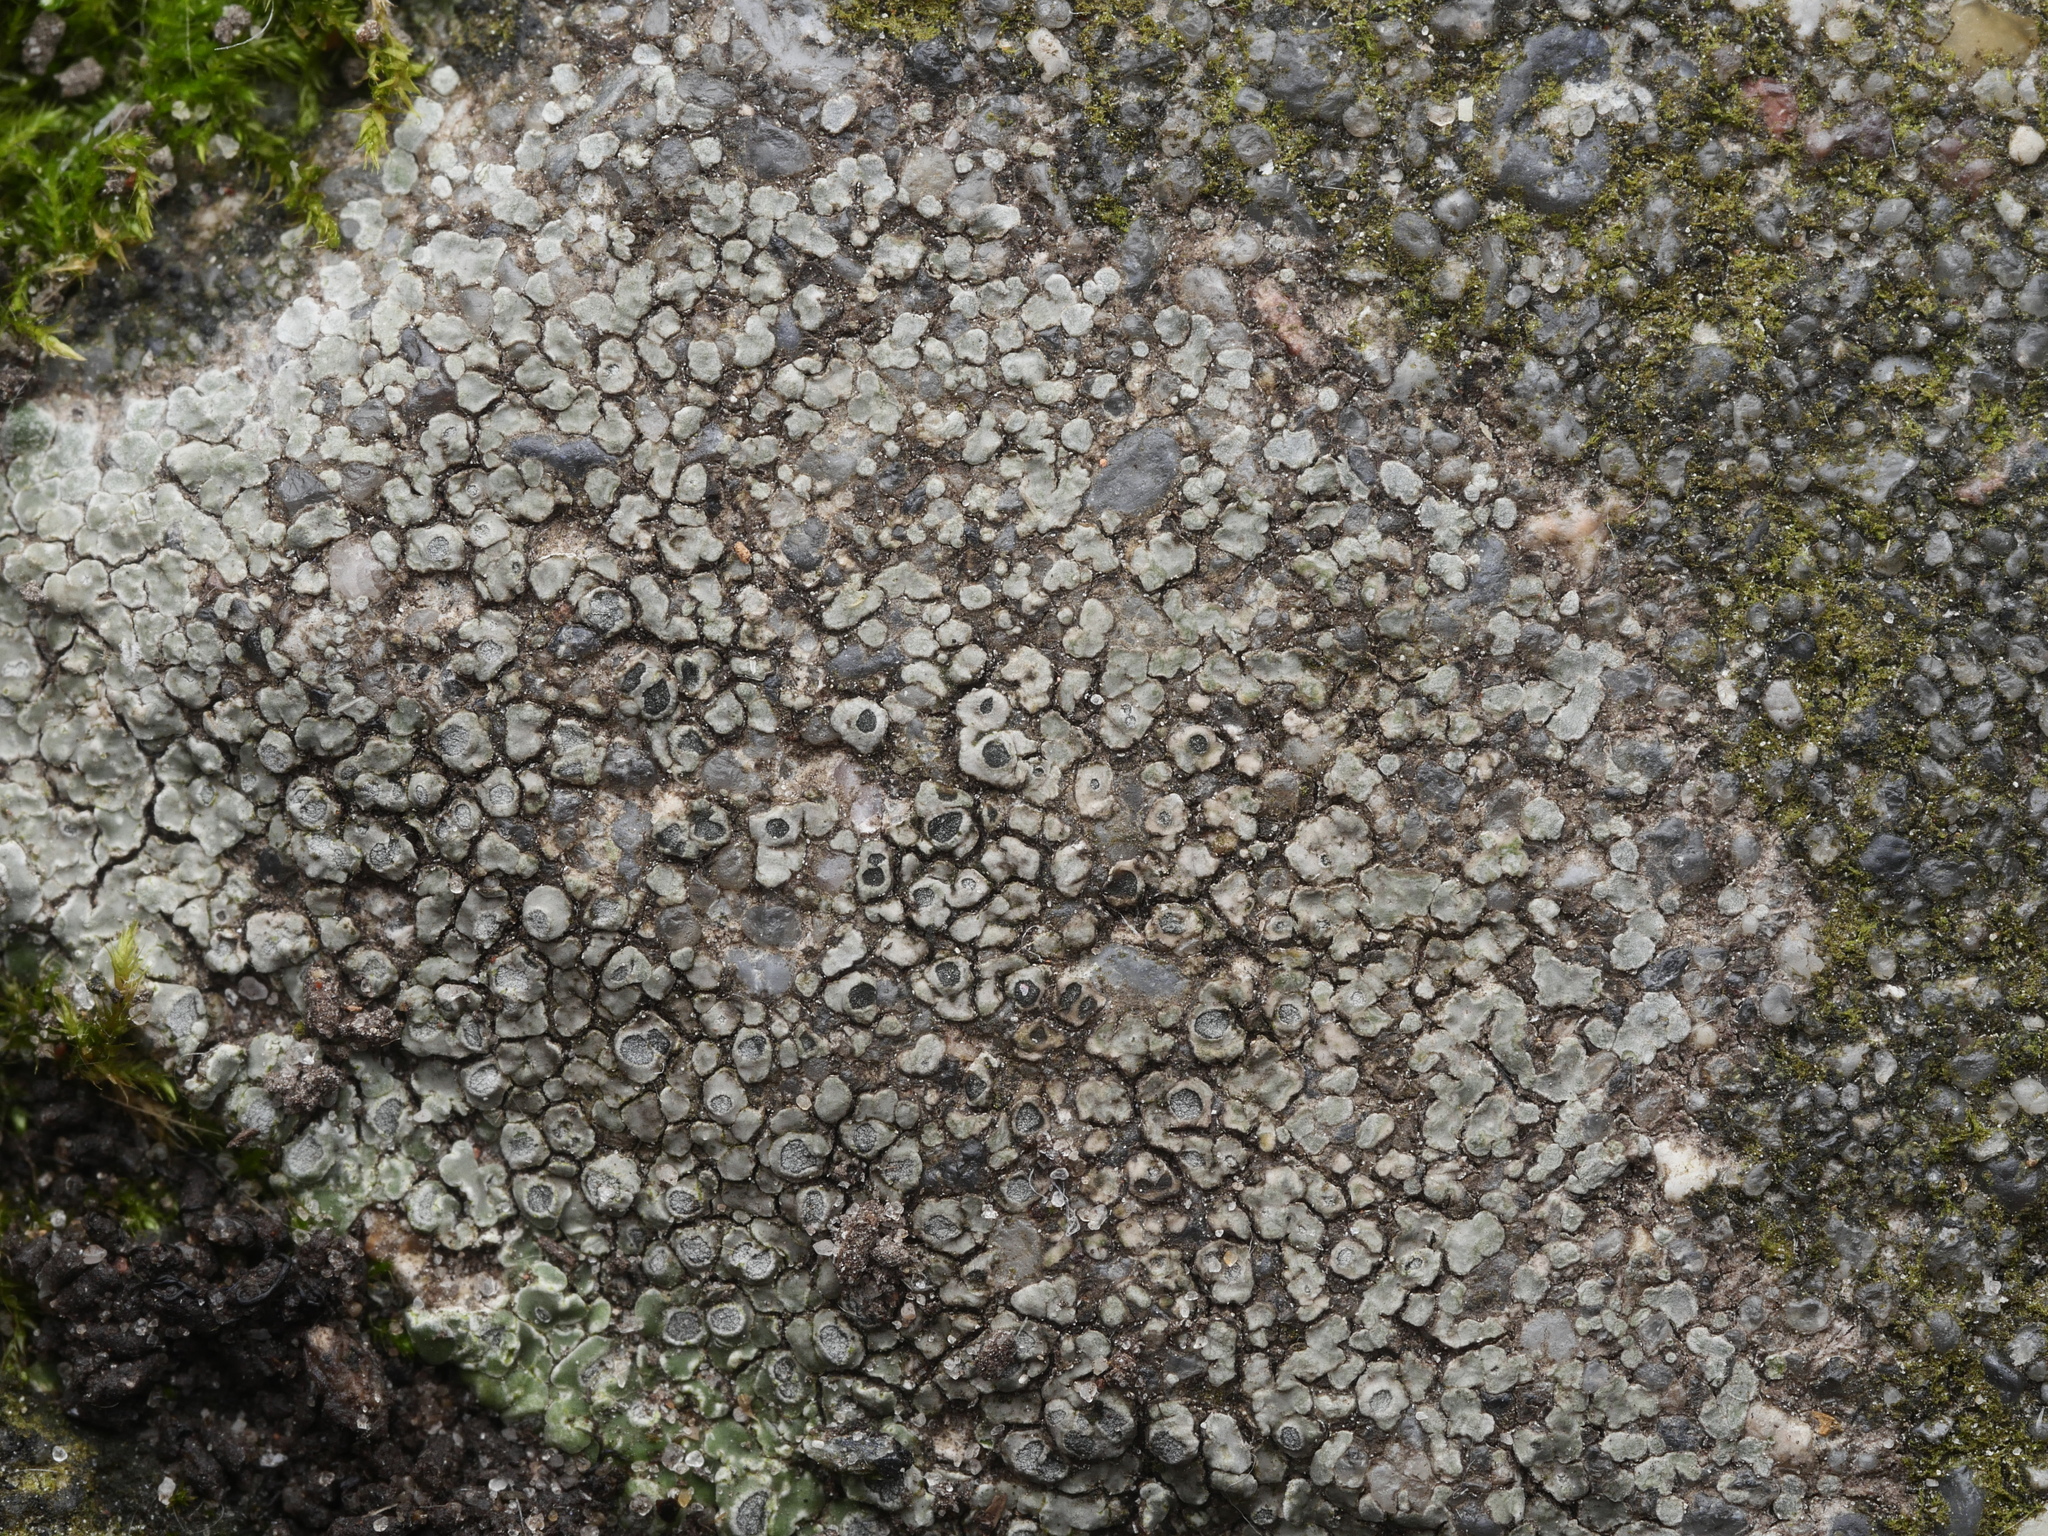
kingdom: Fungi
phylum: Ascomycota
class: Lecanoromycetes
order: Pertusariales
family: Megasporaceae
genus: Circinaria
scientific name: Circinaria contorta
